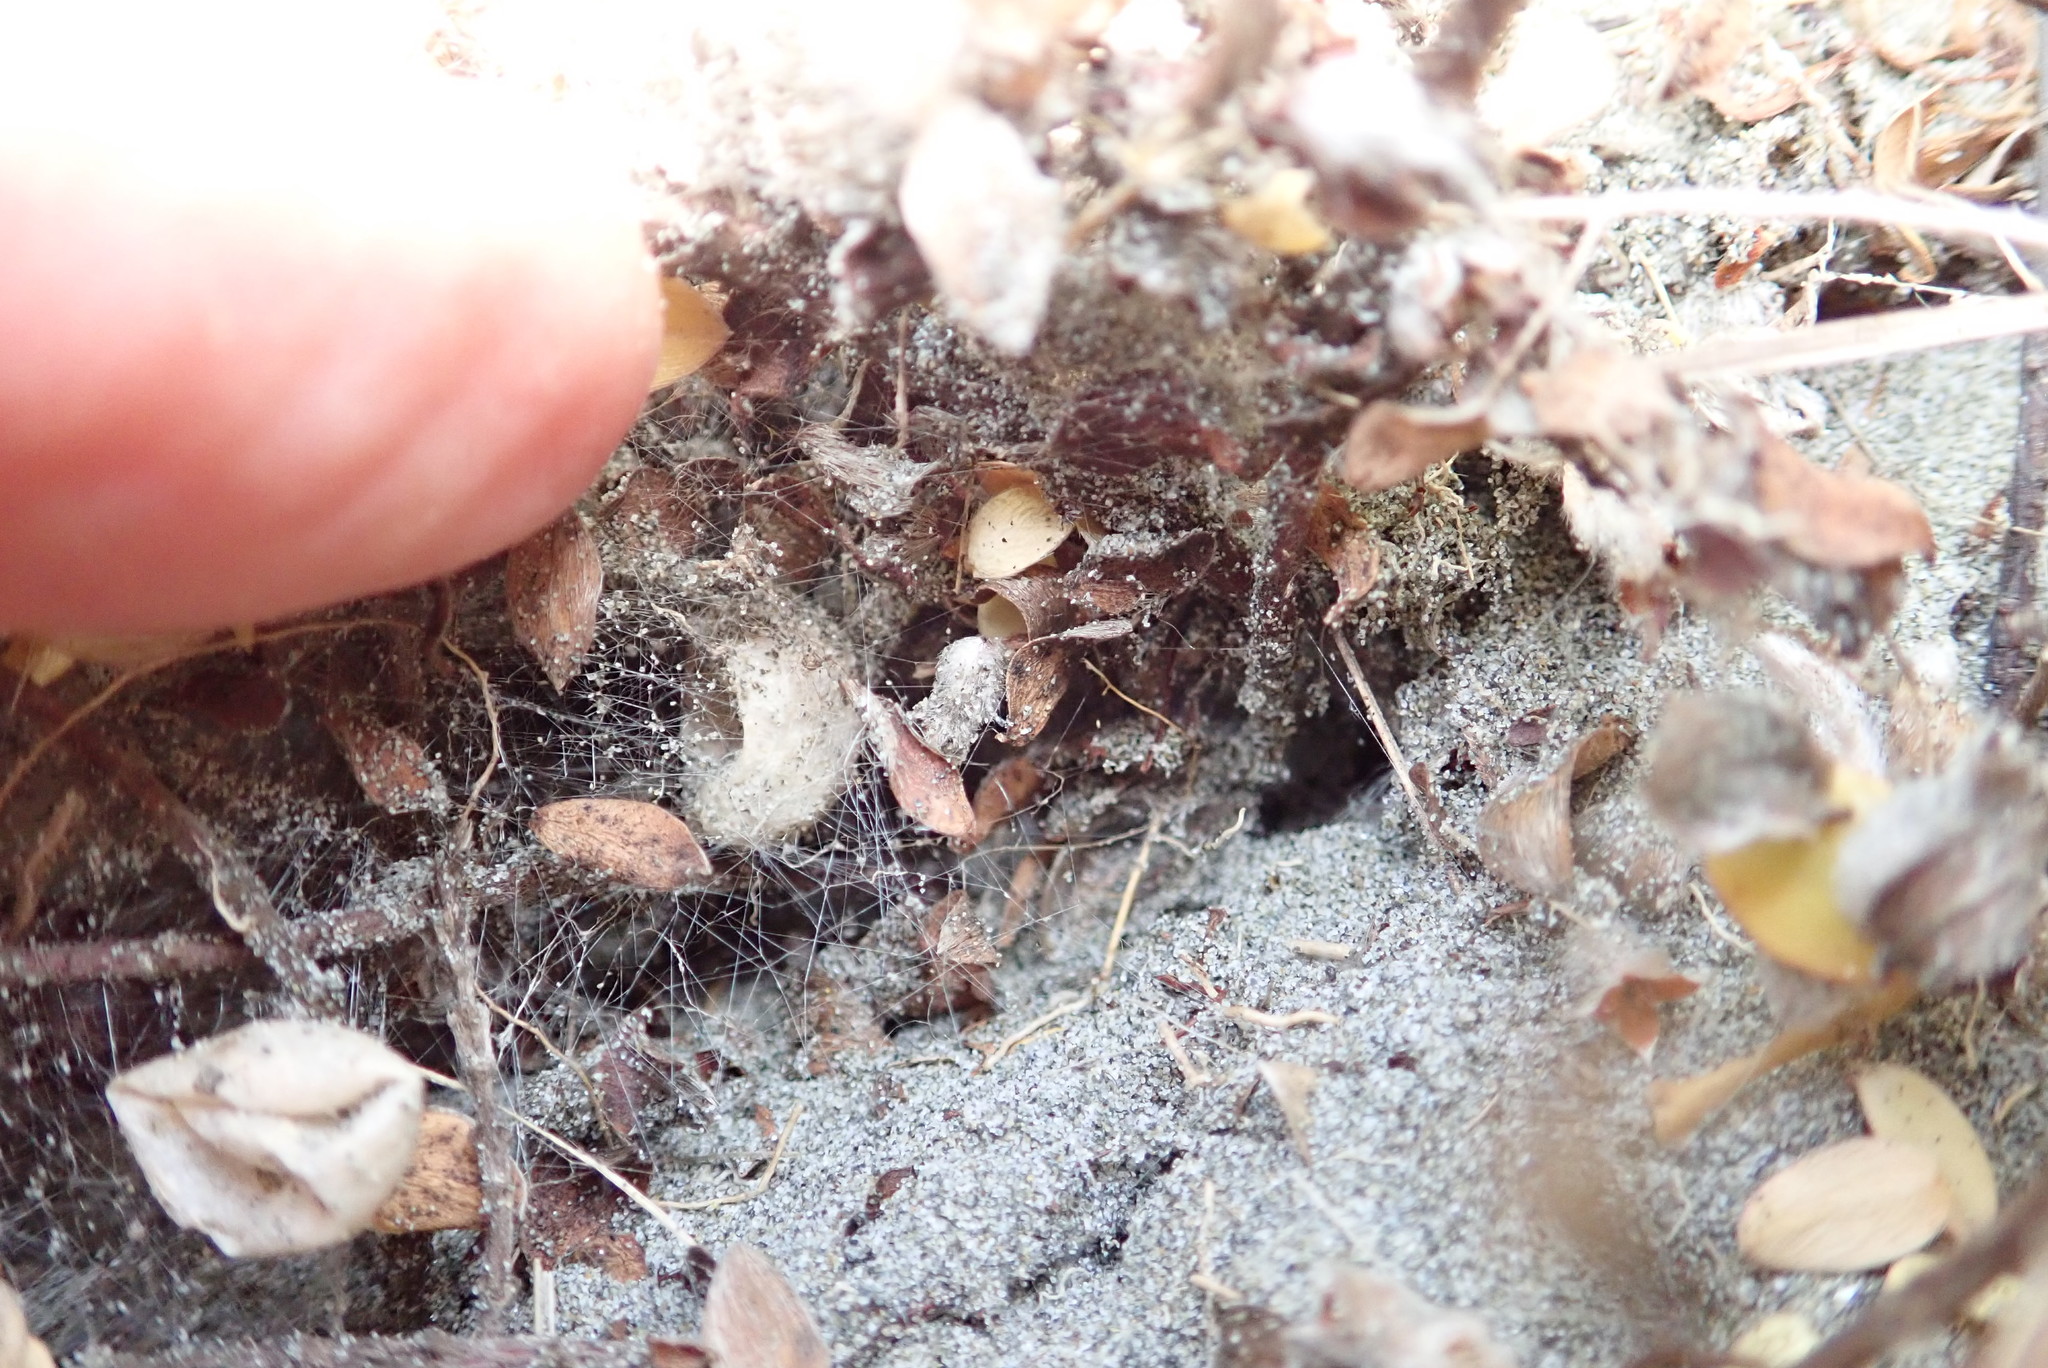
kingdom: Animalia
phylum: Arthropoda
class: Arachnida
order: Araneae
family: Theridiidae
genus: Latrodectus
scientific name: Latrodectus katipo
